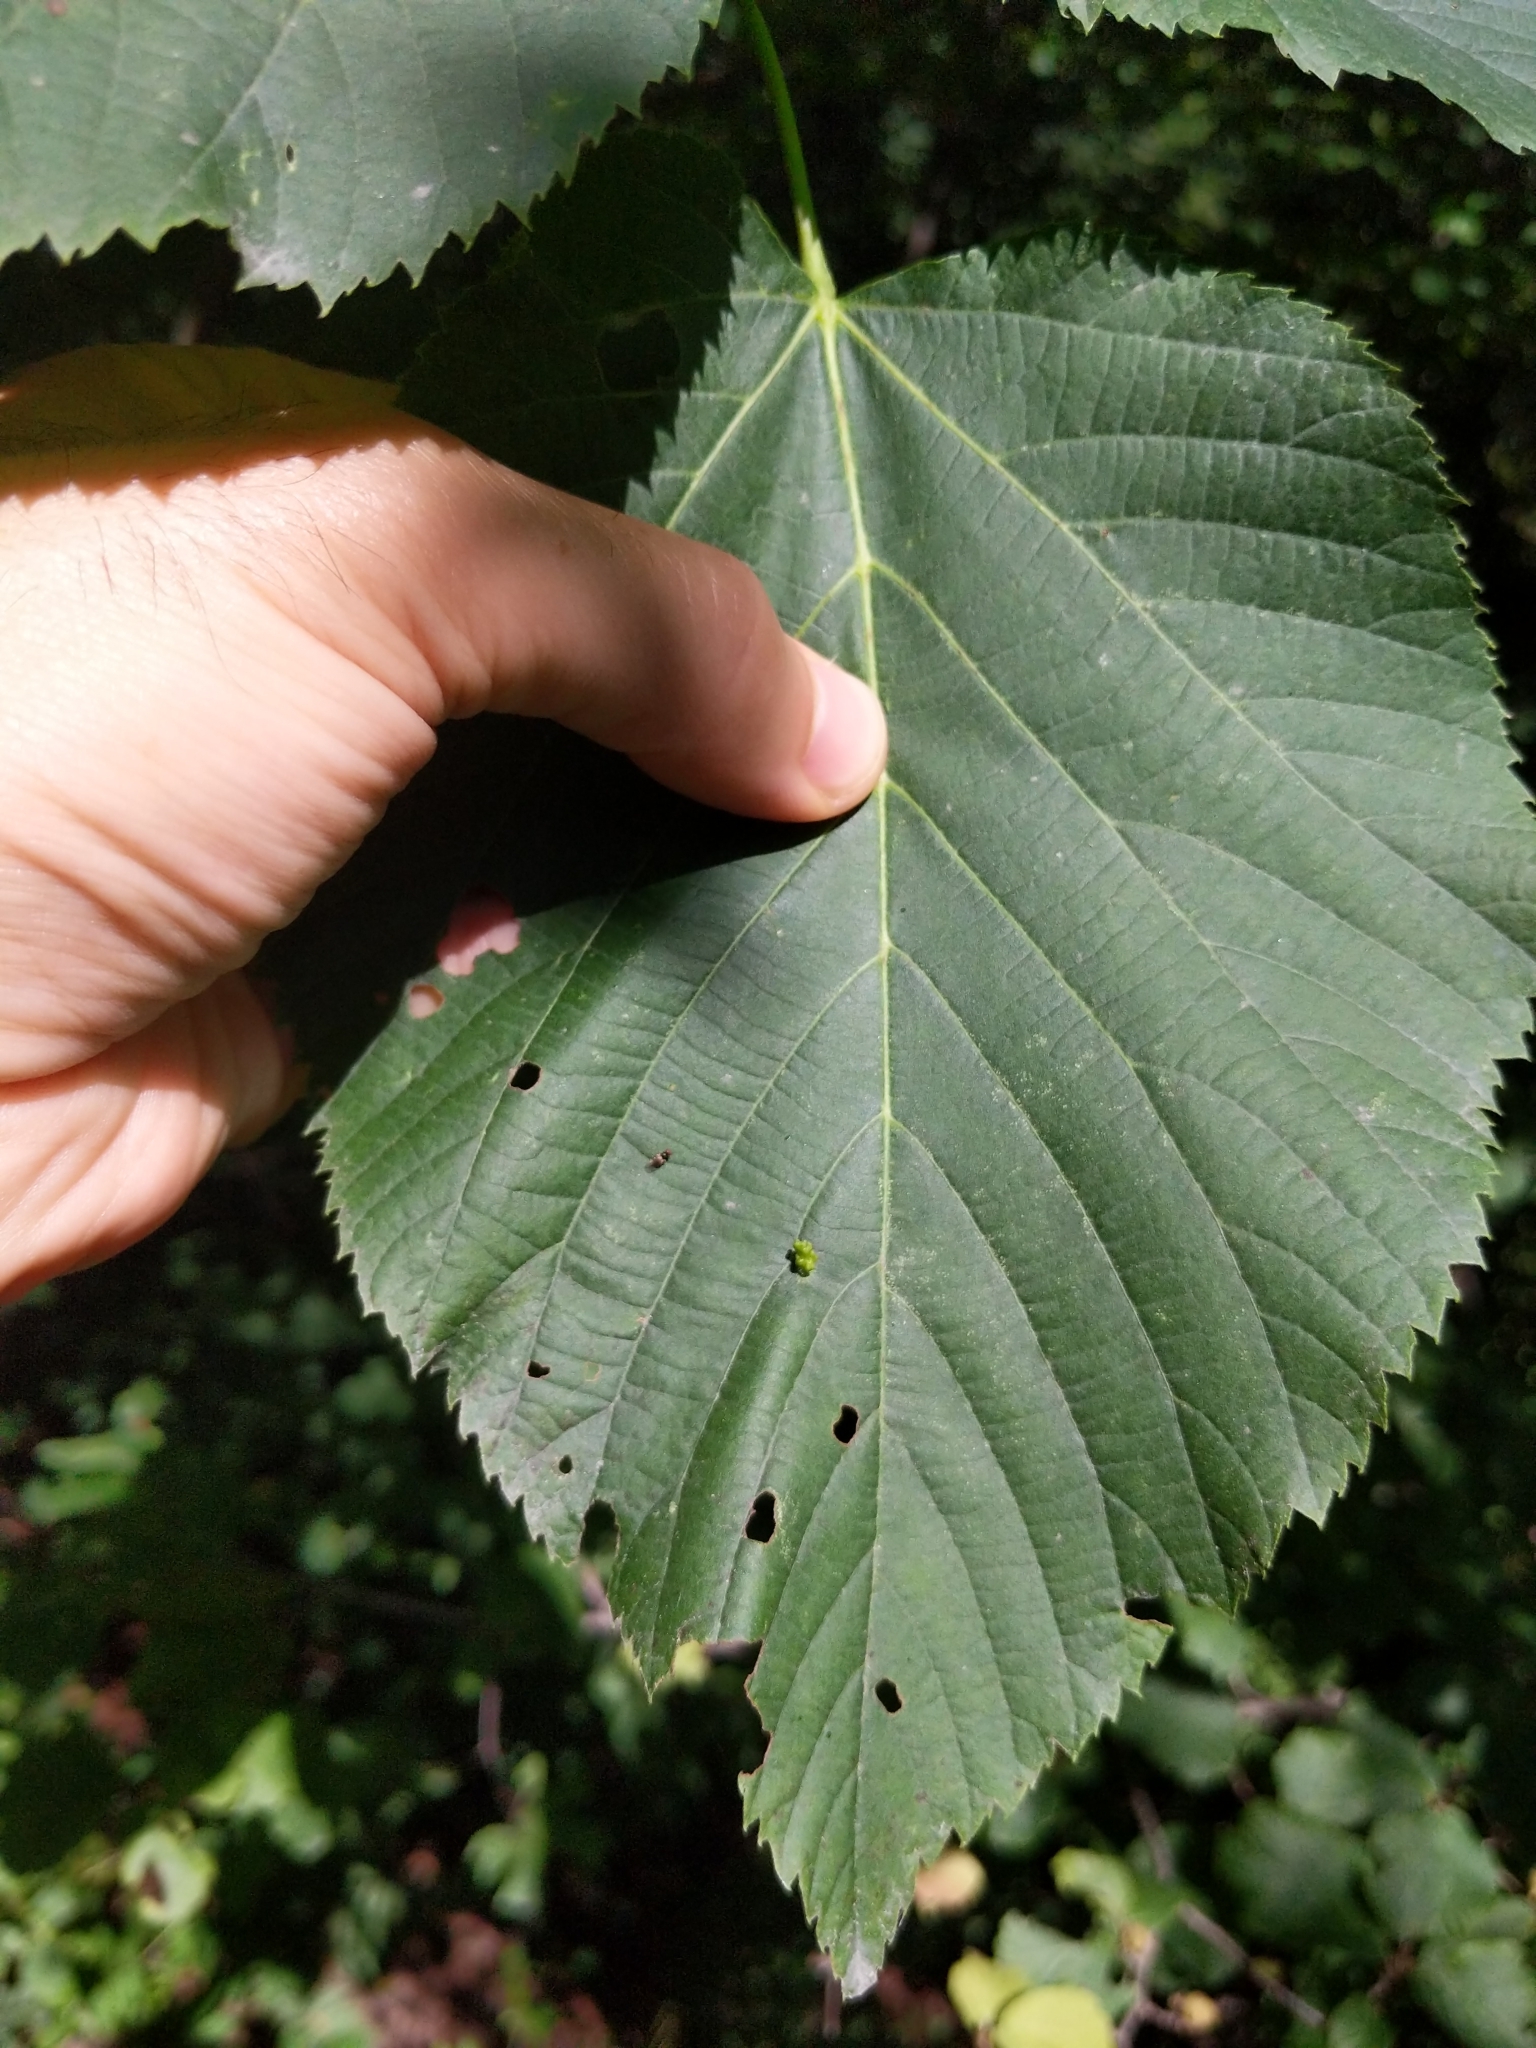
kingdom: Plantae
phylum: Tracheophyta
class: Magnoliopsida
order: Malvales
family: Malvaceae
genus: Tilia
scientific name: Tilia americana
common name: Basswood
